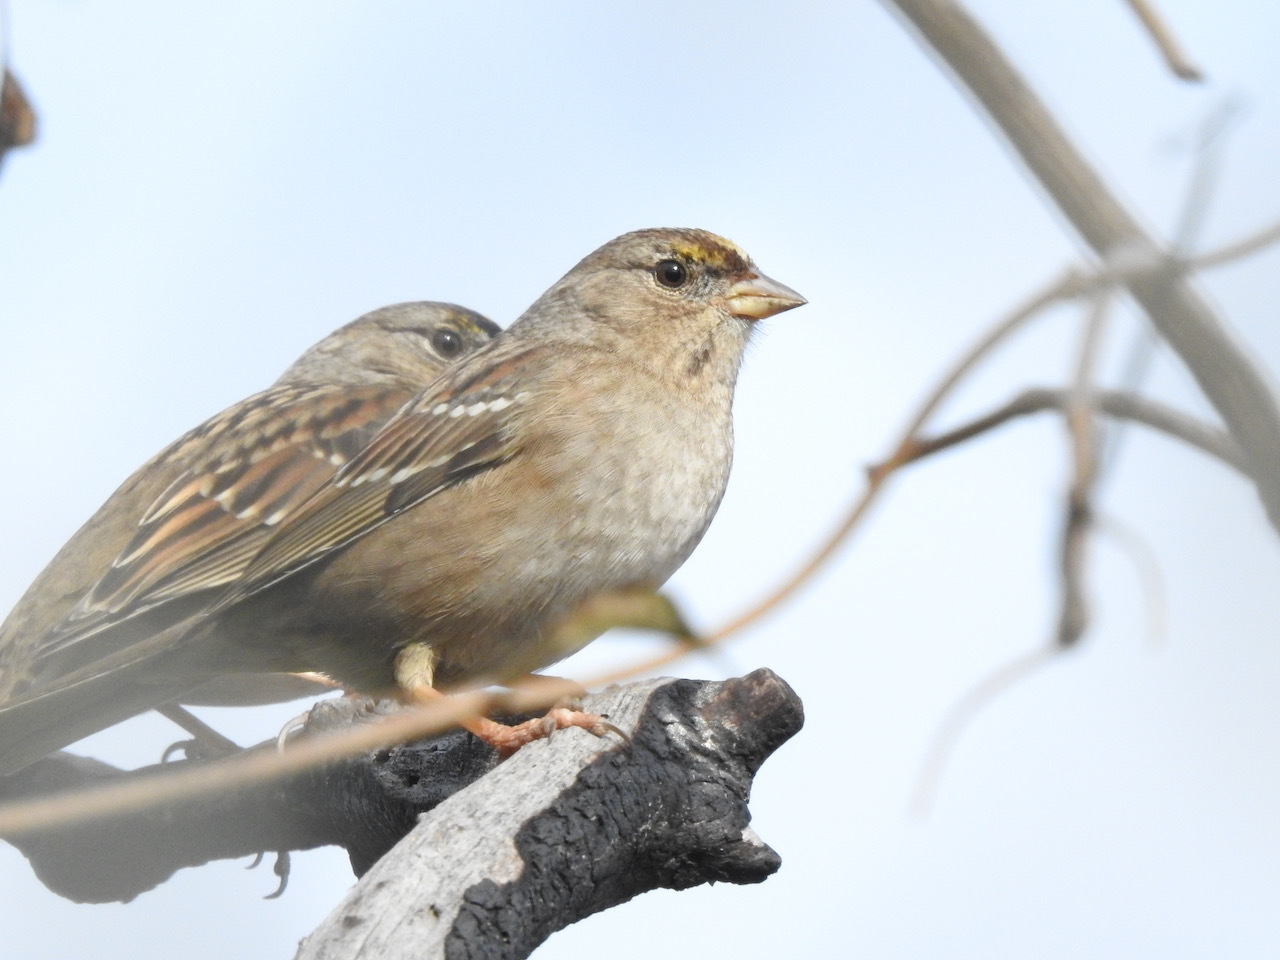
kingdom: Animalia
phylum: Chordata
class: Aves
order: Passeriformes
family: Passerellidae
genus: Zonotrichia
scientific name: Zonotrichia atricapilla
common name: Golden-crowned sparrow
